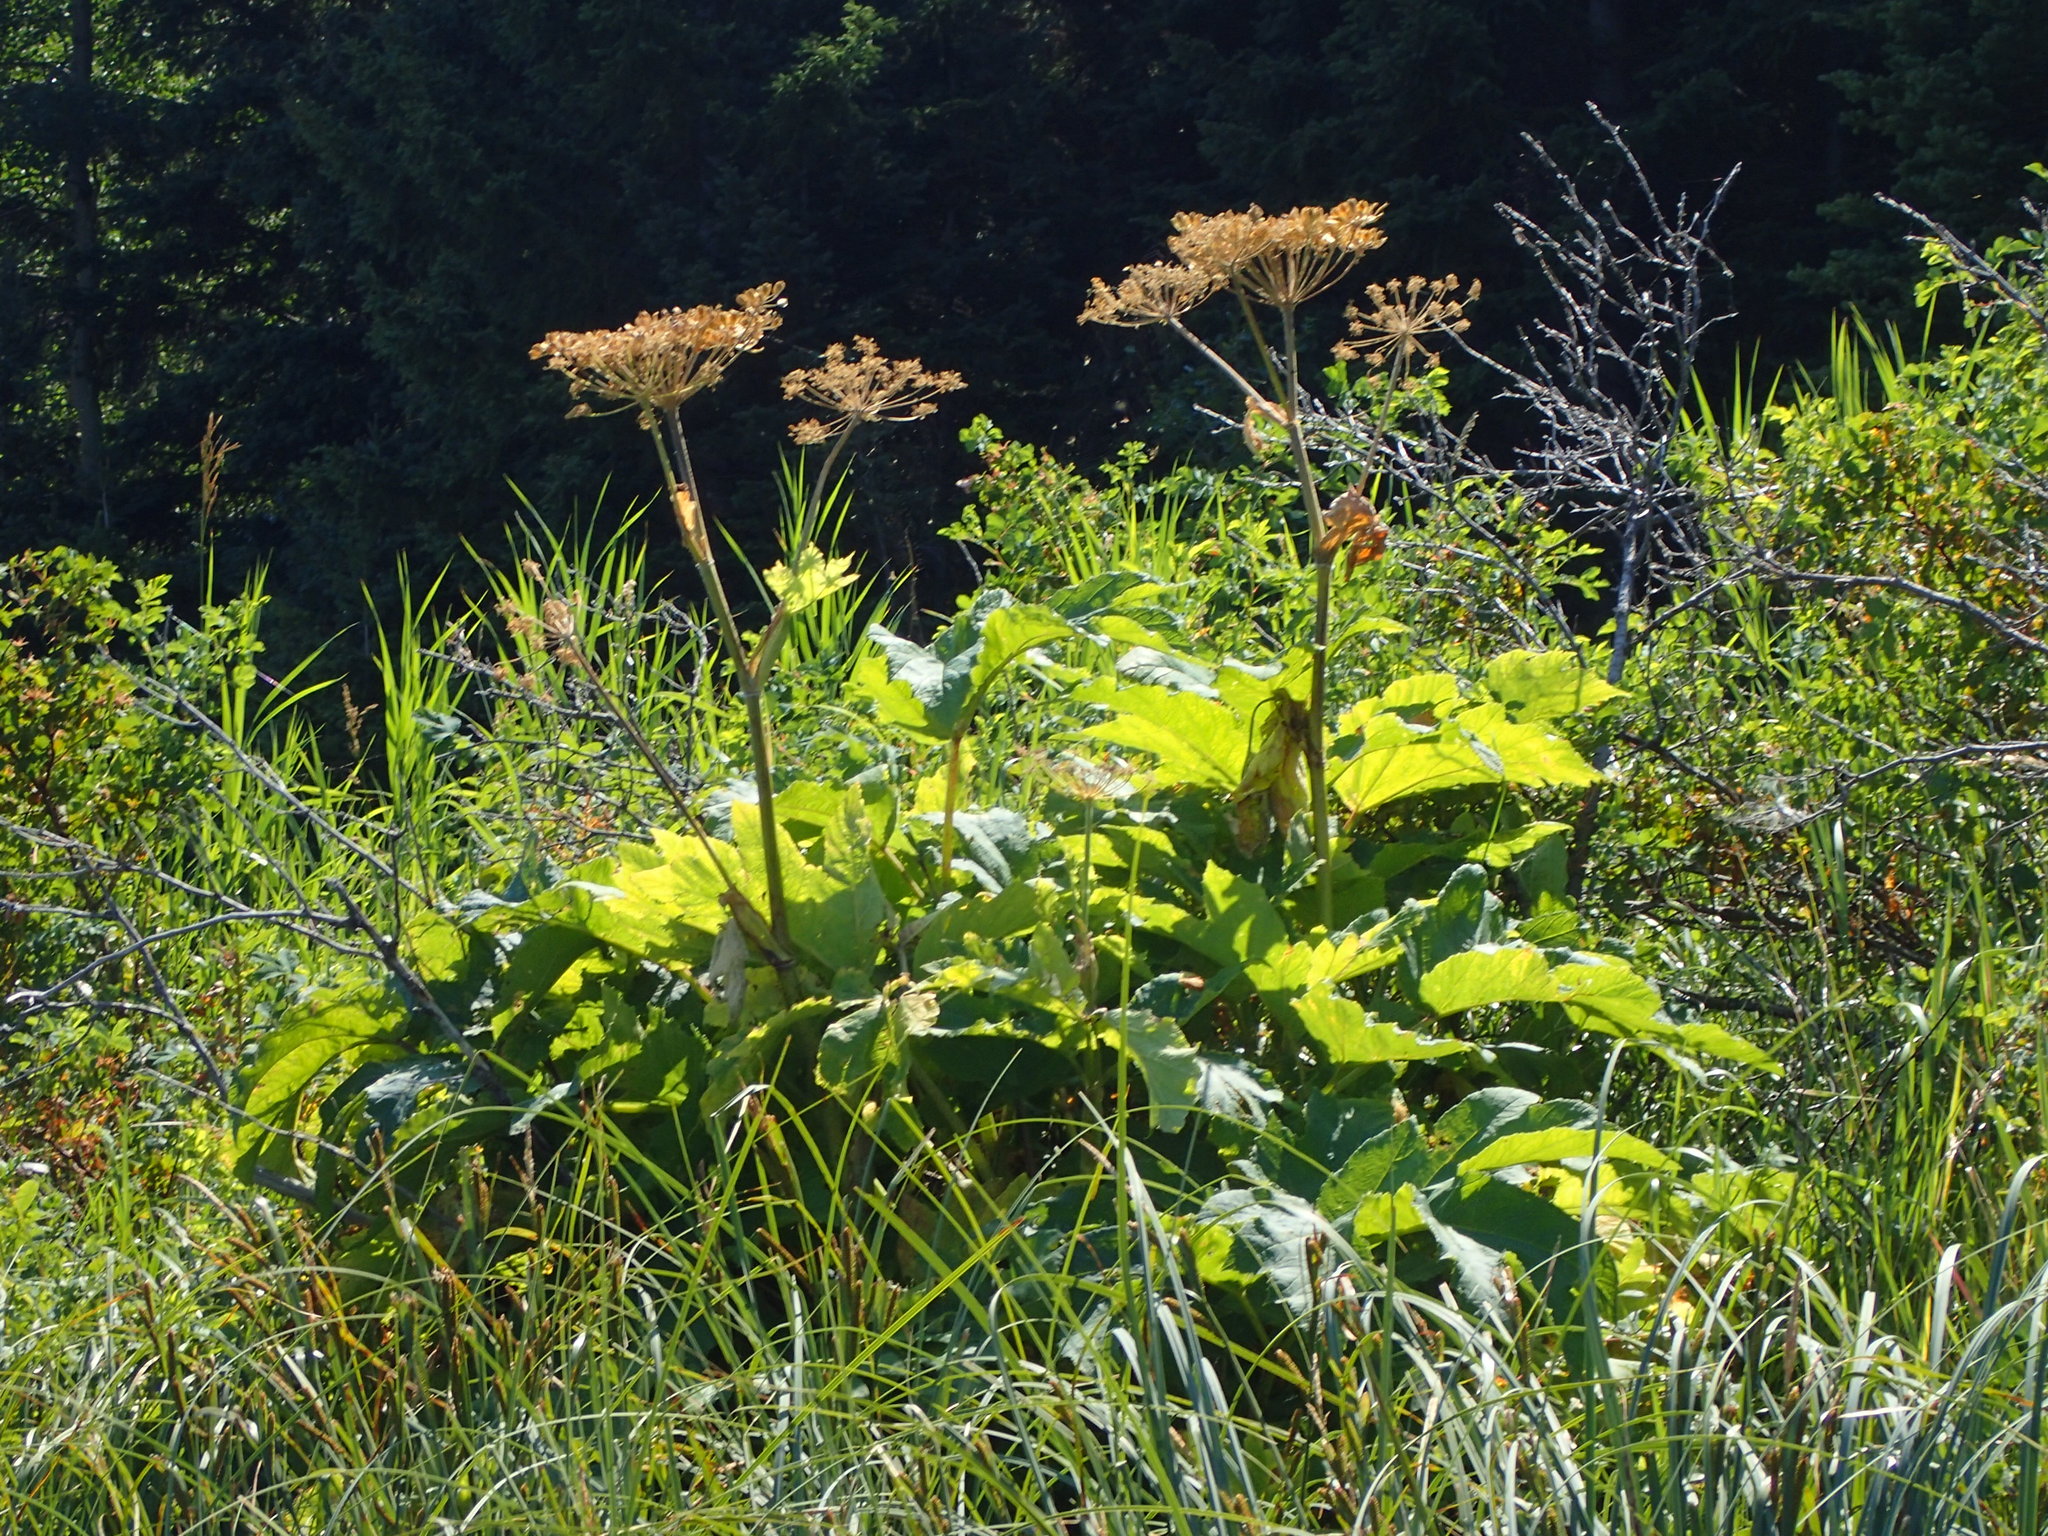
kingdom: Plantae
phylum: Tracheophyta
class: Magnoliopsida
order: Apiales
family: Apiaceae
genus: Heracleum
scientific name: Heracleum maximum
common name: American cow parsnip
